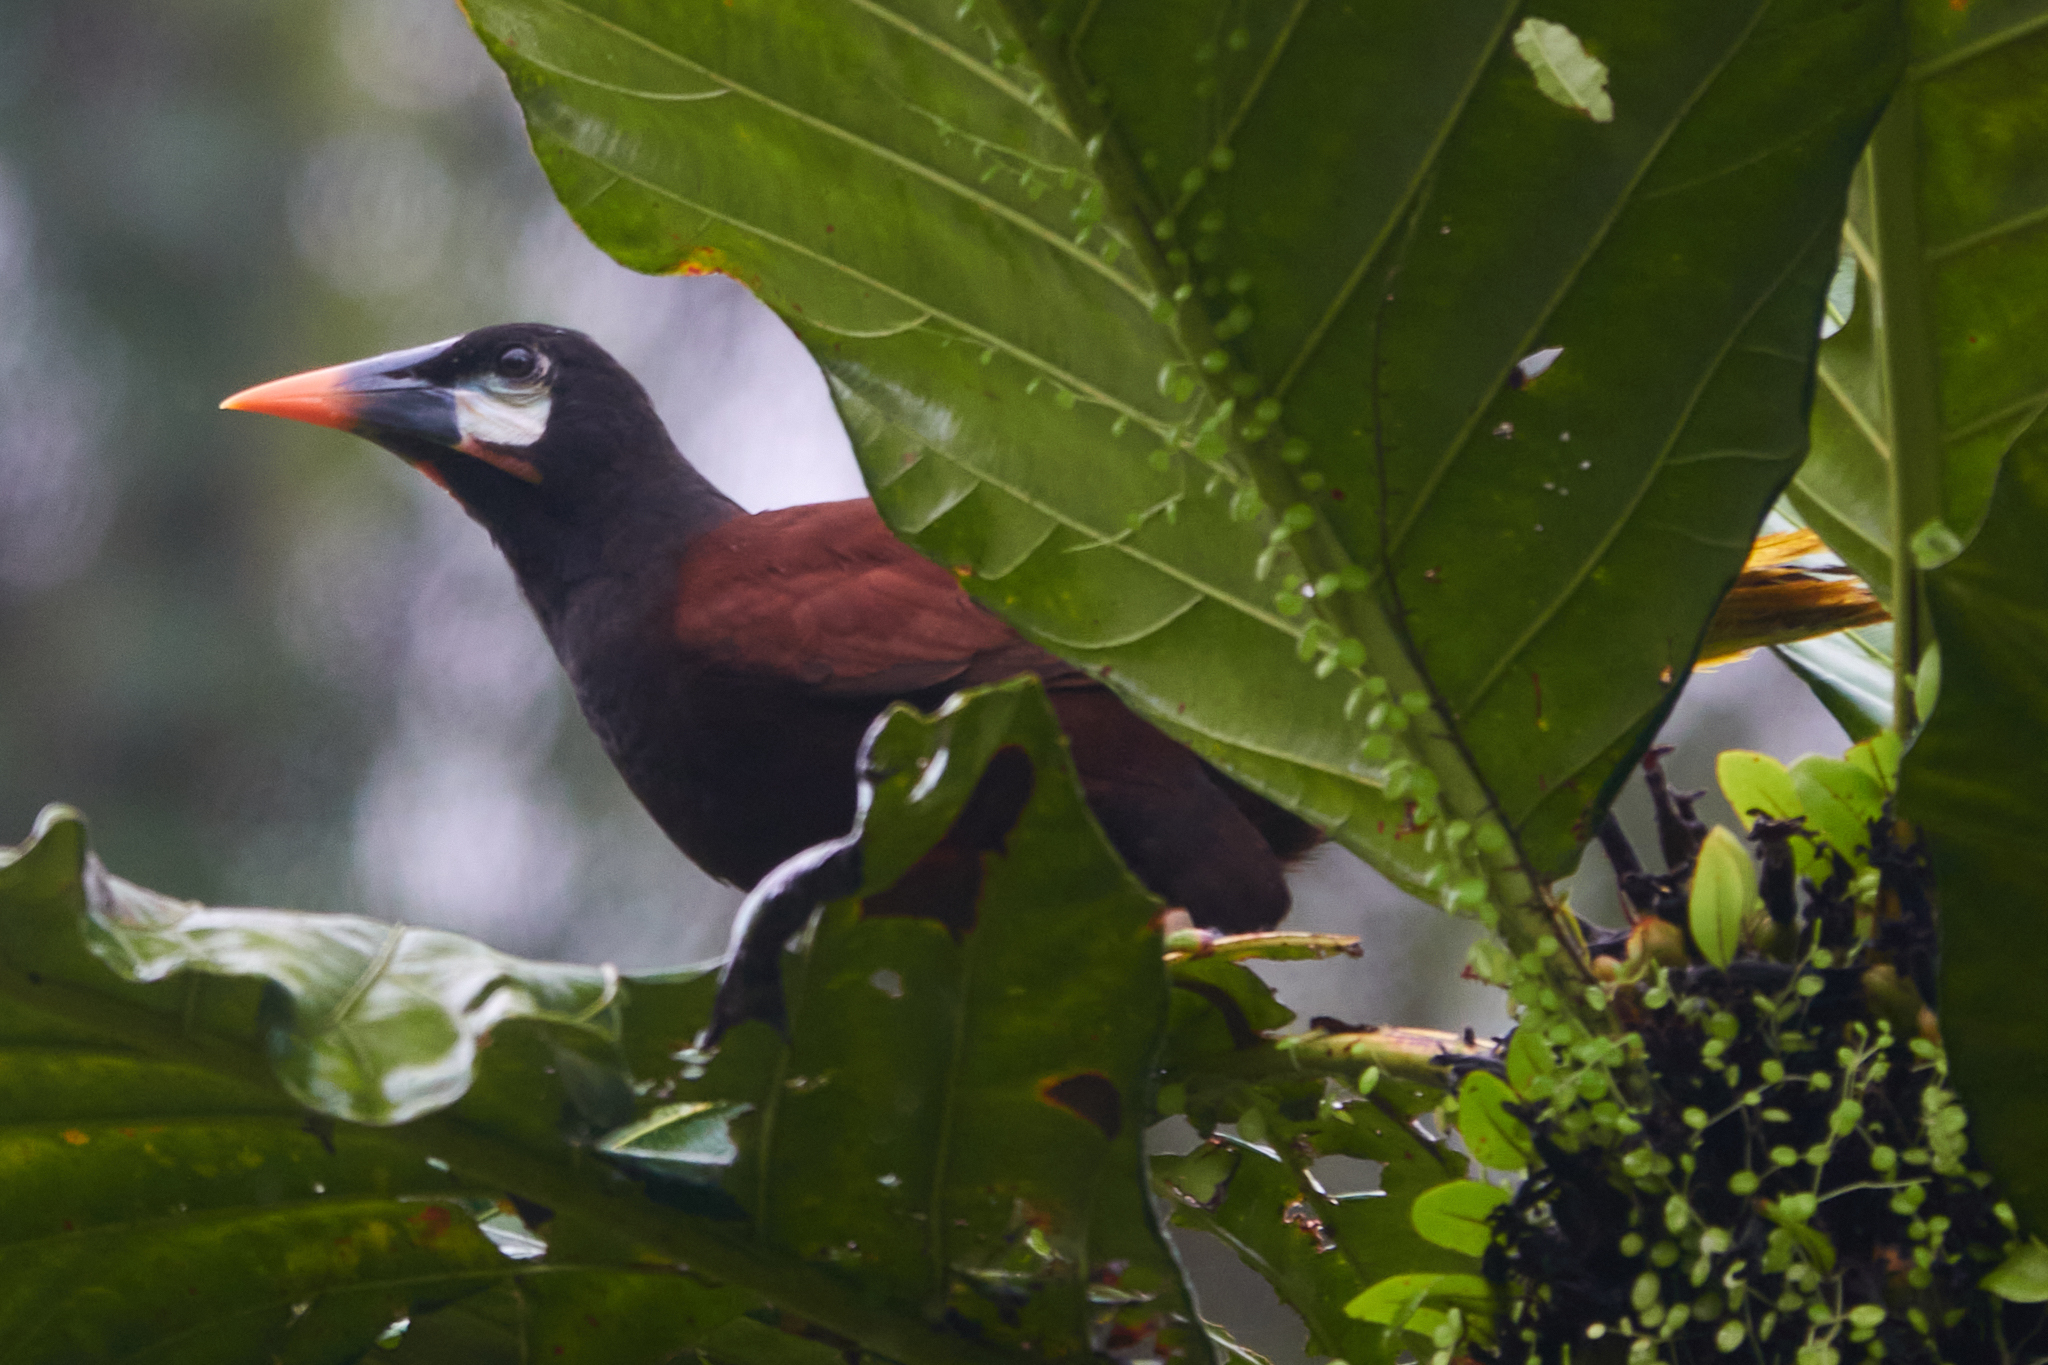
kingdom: Animalia
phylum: Chordata
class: Aves
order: Passeriformes
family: Icteridae
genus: Psarocolius
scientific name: Psarocolius montezuma
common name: Montezuma oropendola
